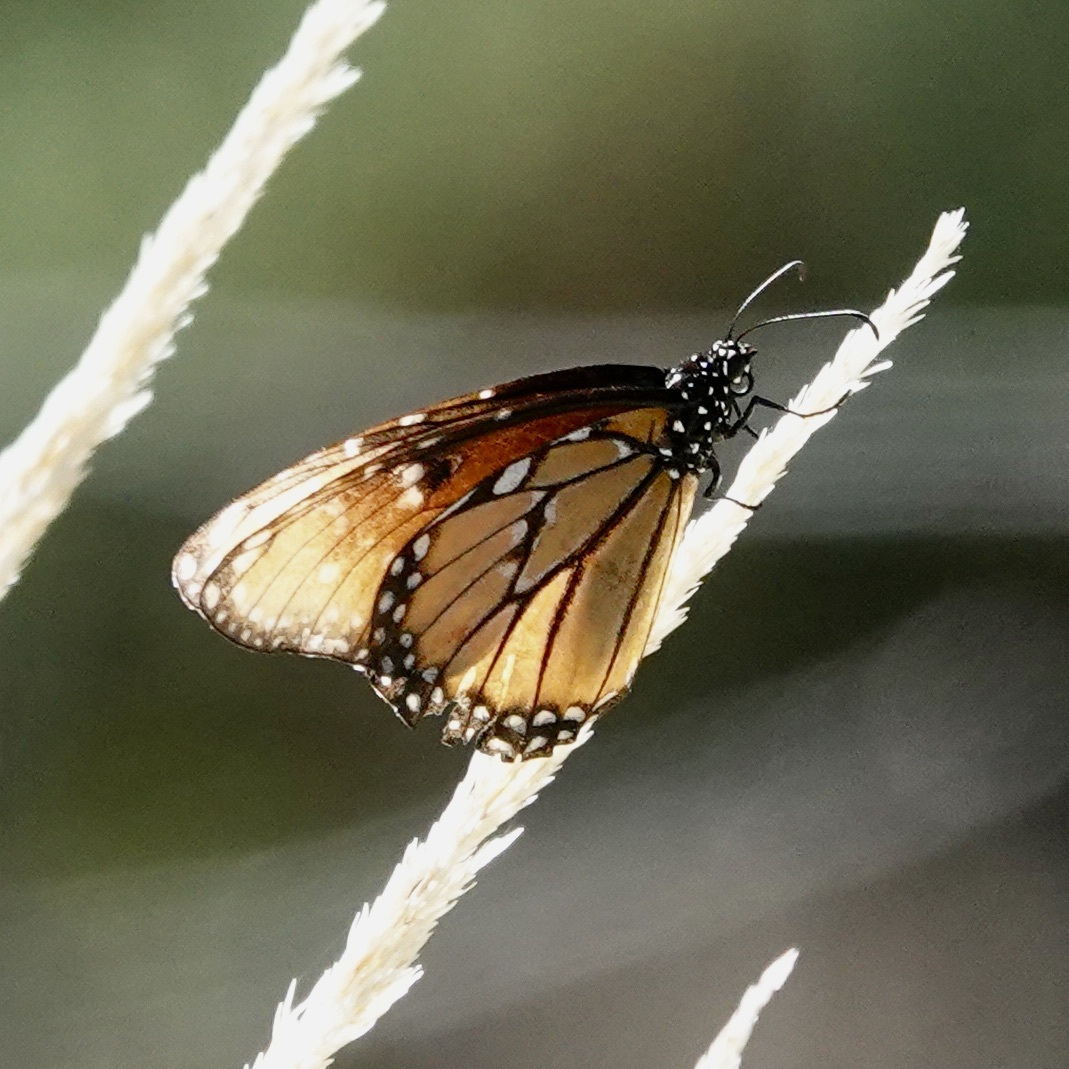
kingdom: Animalia
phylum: Arthropoda
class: Insecta
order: Lepidoptera
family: Nymphalidae
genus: Danaus
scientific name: Danaus gilippus
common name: Queen
